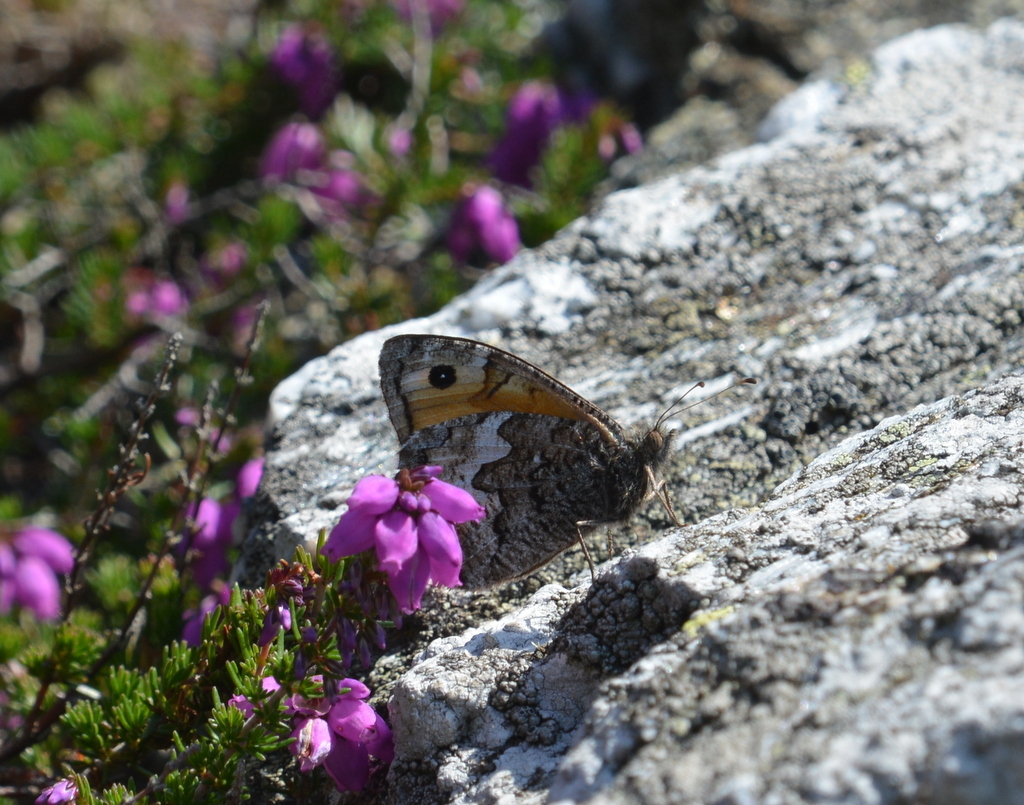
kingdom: Animalia
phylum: Arthropoda
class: Insecta
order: Lepidoptera
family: Nymphalidae
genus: Hipparchia
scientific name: Hipparchia semele
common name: Grayling
